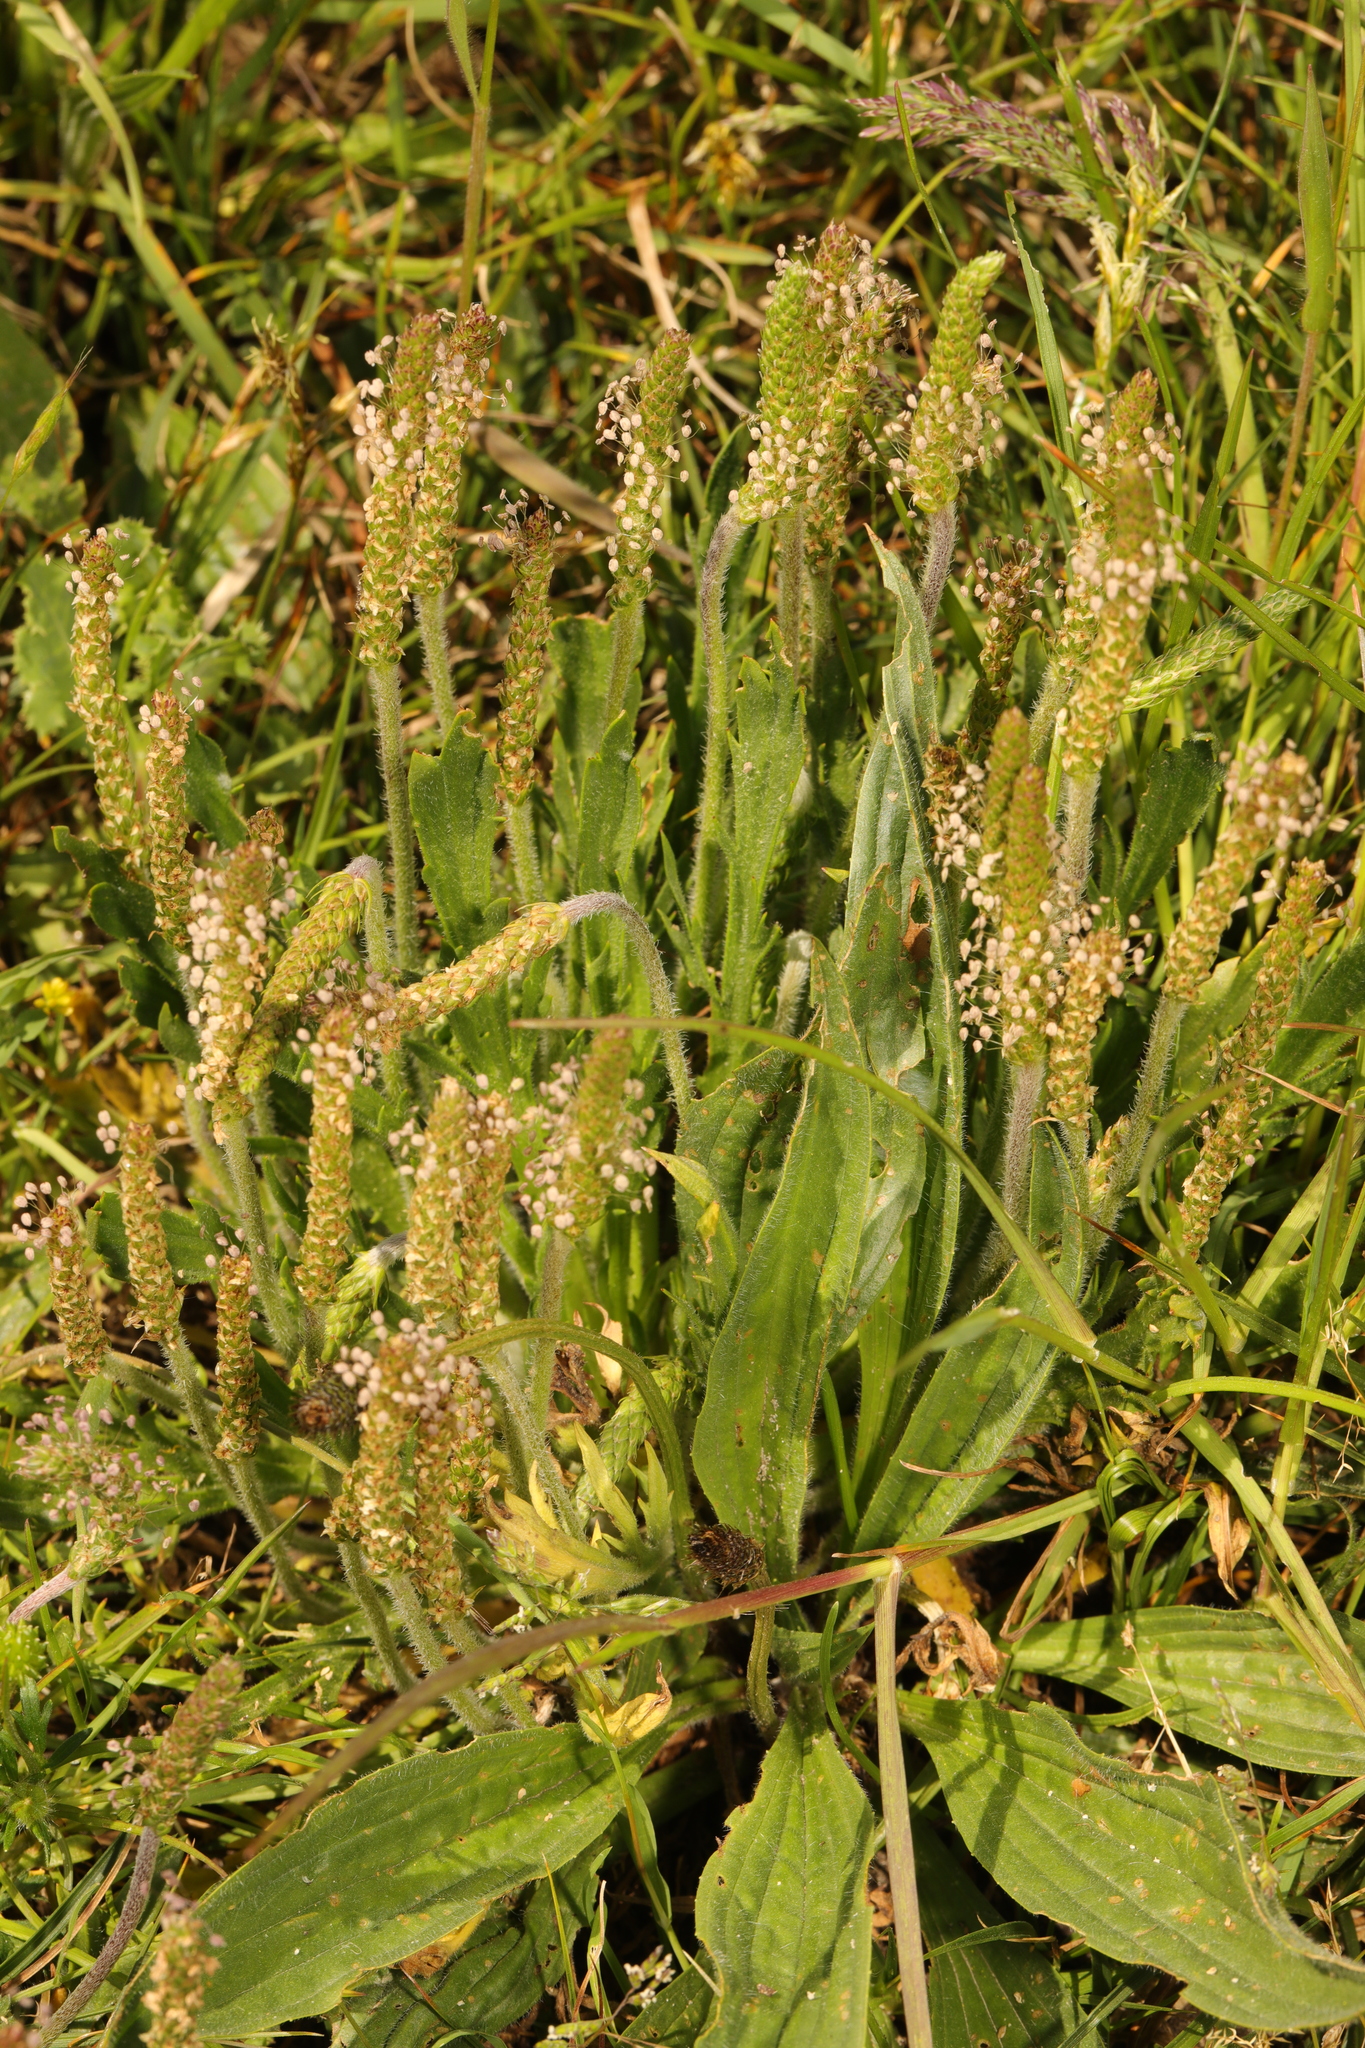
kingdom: Plantae
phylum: Tracheophyta
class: Magnoliopsida
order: Lamiales
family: Plantaginaceae
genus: Plantago
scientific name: Plantago coronopus
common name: Buck's-horn plantain
